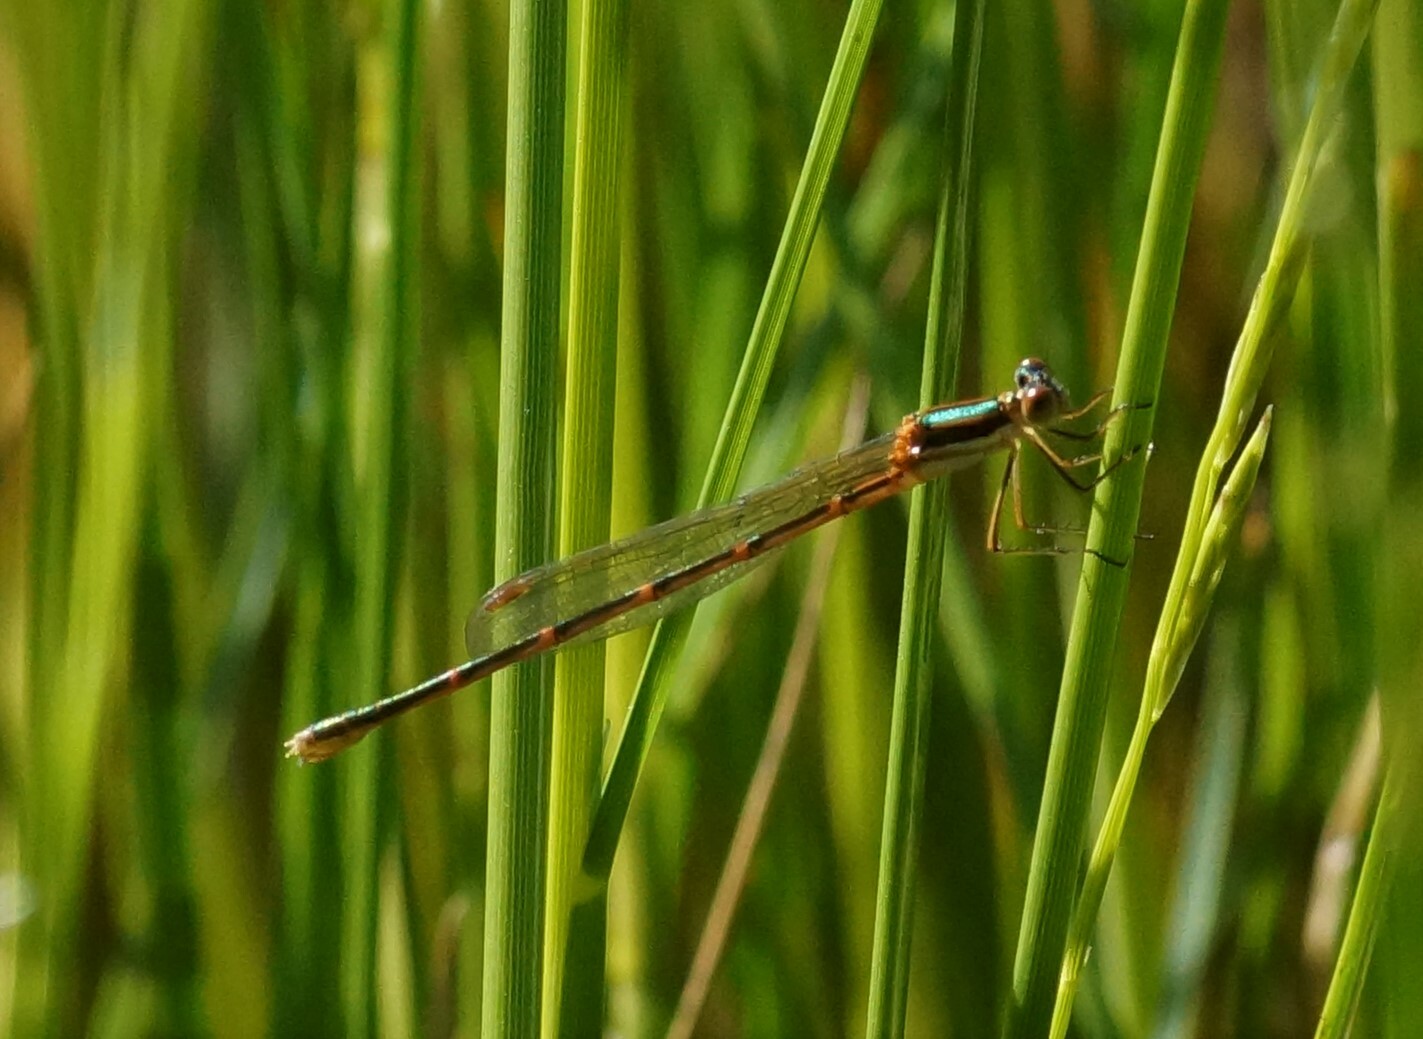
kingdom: Animalia
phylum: Arthropoda
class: Insecta
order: Odonata
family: Lestidae
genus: Austrolestes
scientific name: Austrolestes analis
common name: Slender ringtail
